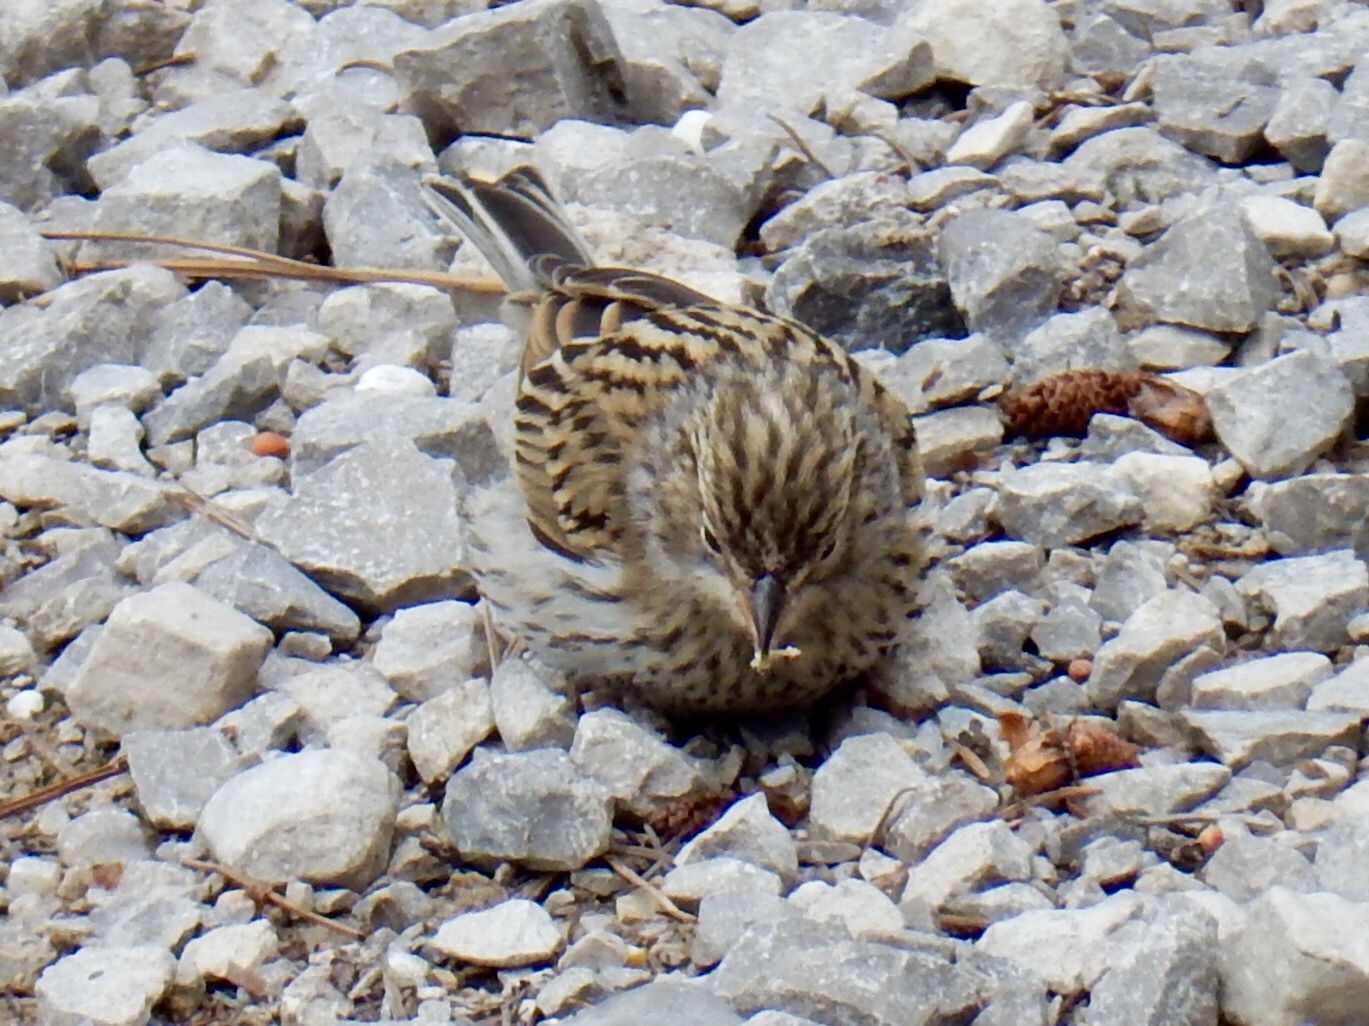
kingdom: Animalia
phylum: Chordata
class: Aves
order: Passeriformes
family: Passerellidae
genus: Spizella
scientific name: Spizella passerina
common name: Chipping sparrow
